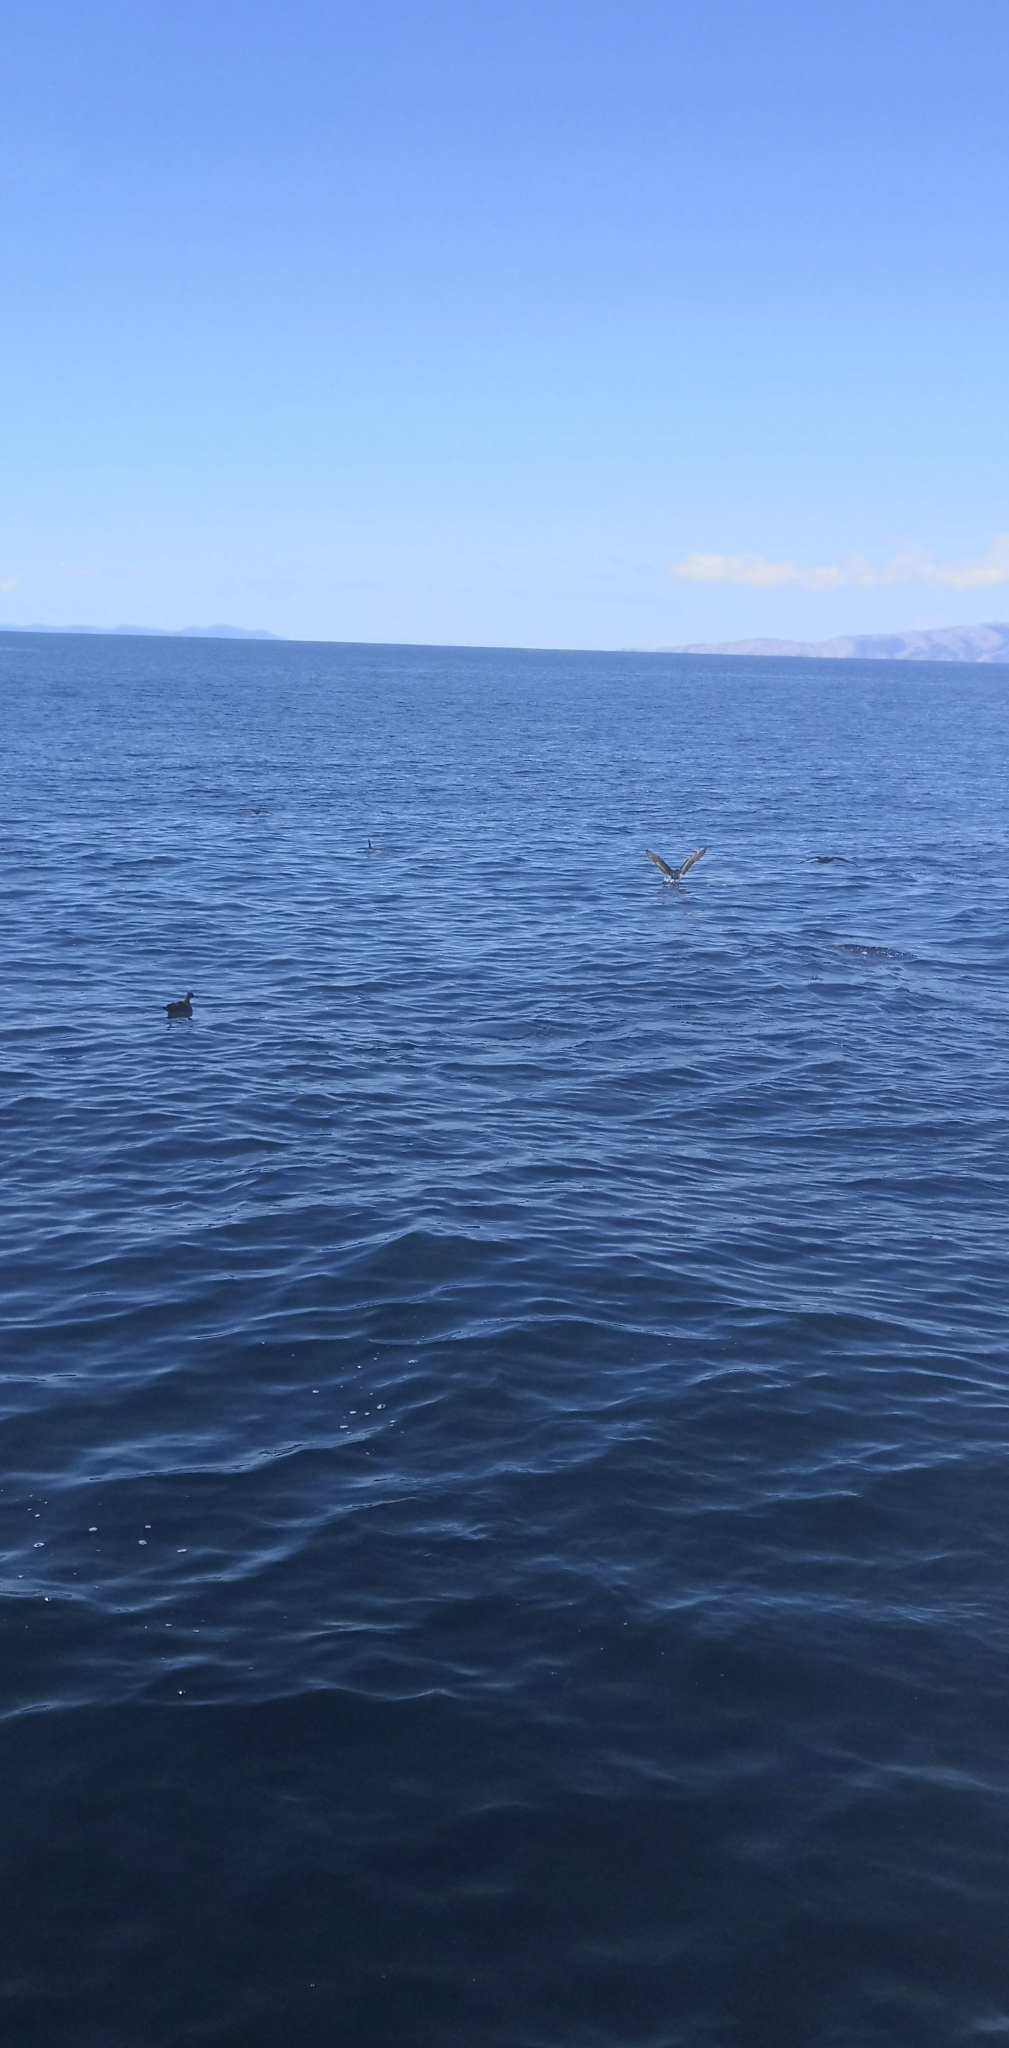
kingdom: Animalia
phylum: Chordata
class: Aves
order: Procellariiformes
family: Procellariidae
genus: Puffinus
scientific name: Puffinus carneipes
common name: Flesh-footed shearwater
